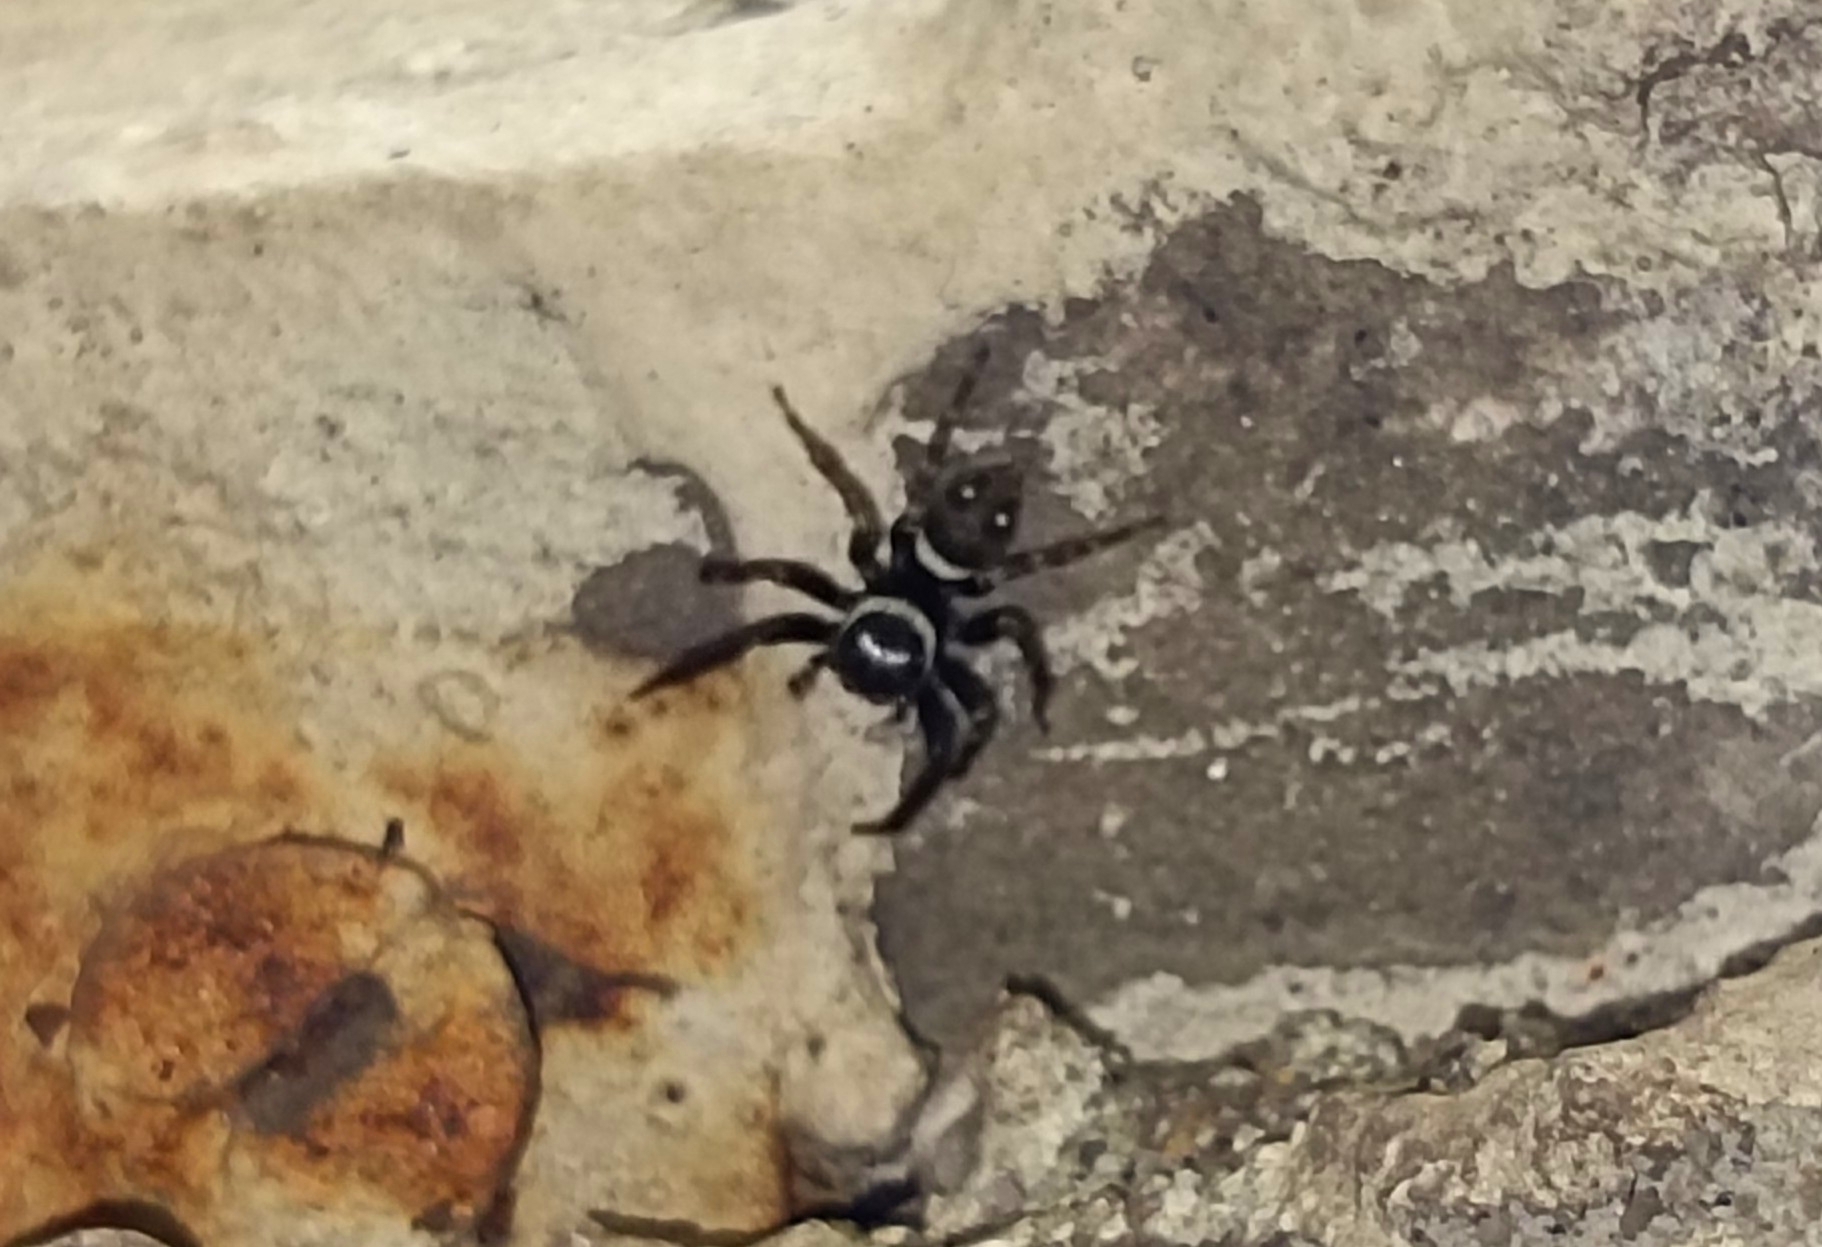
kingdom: Animalia
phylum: Arthropoda
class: Arachnida
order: Araneae
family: Salticidae
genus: Hasarius
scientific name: Hasarius adansoni
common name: Jumping spider
